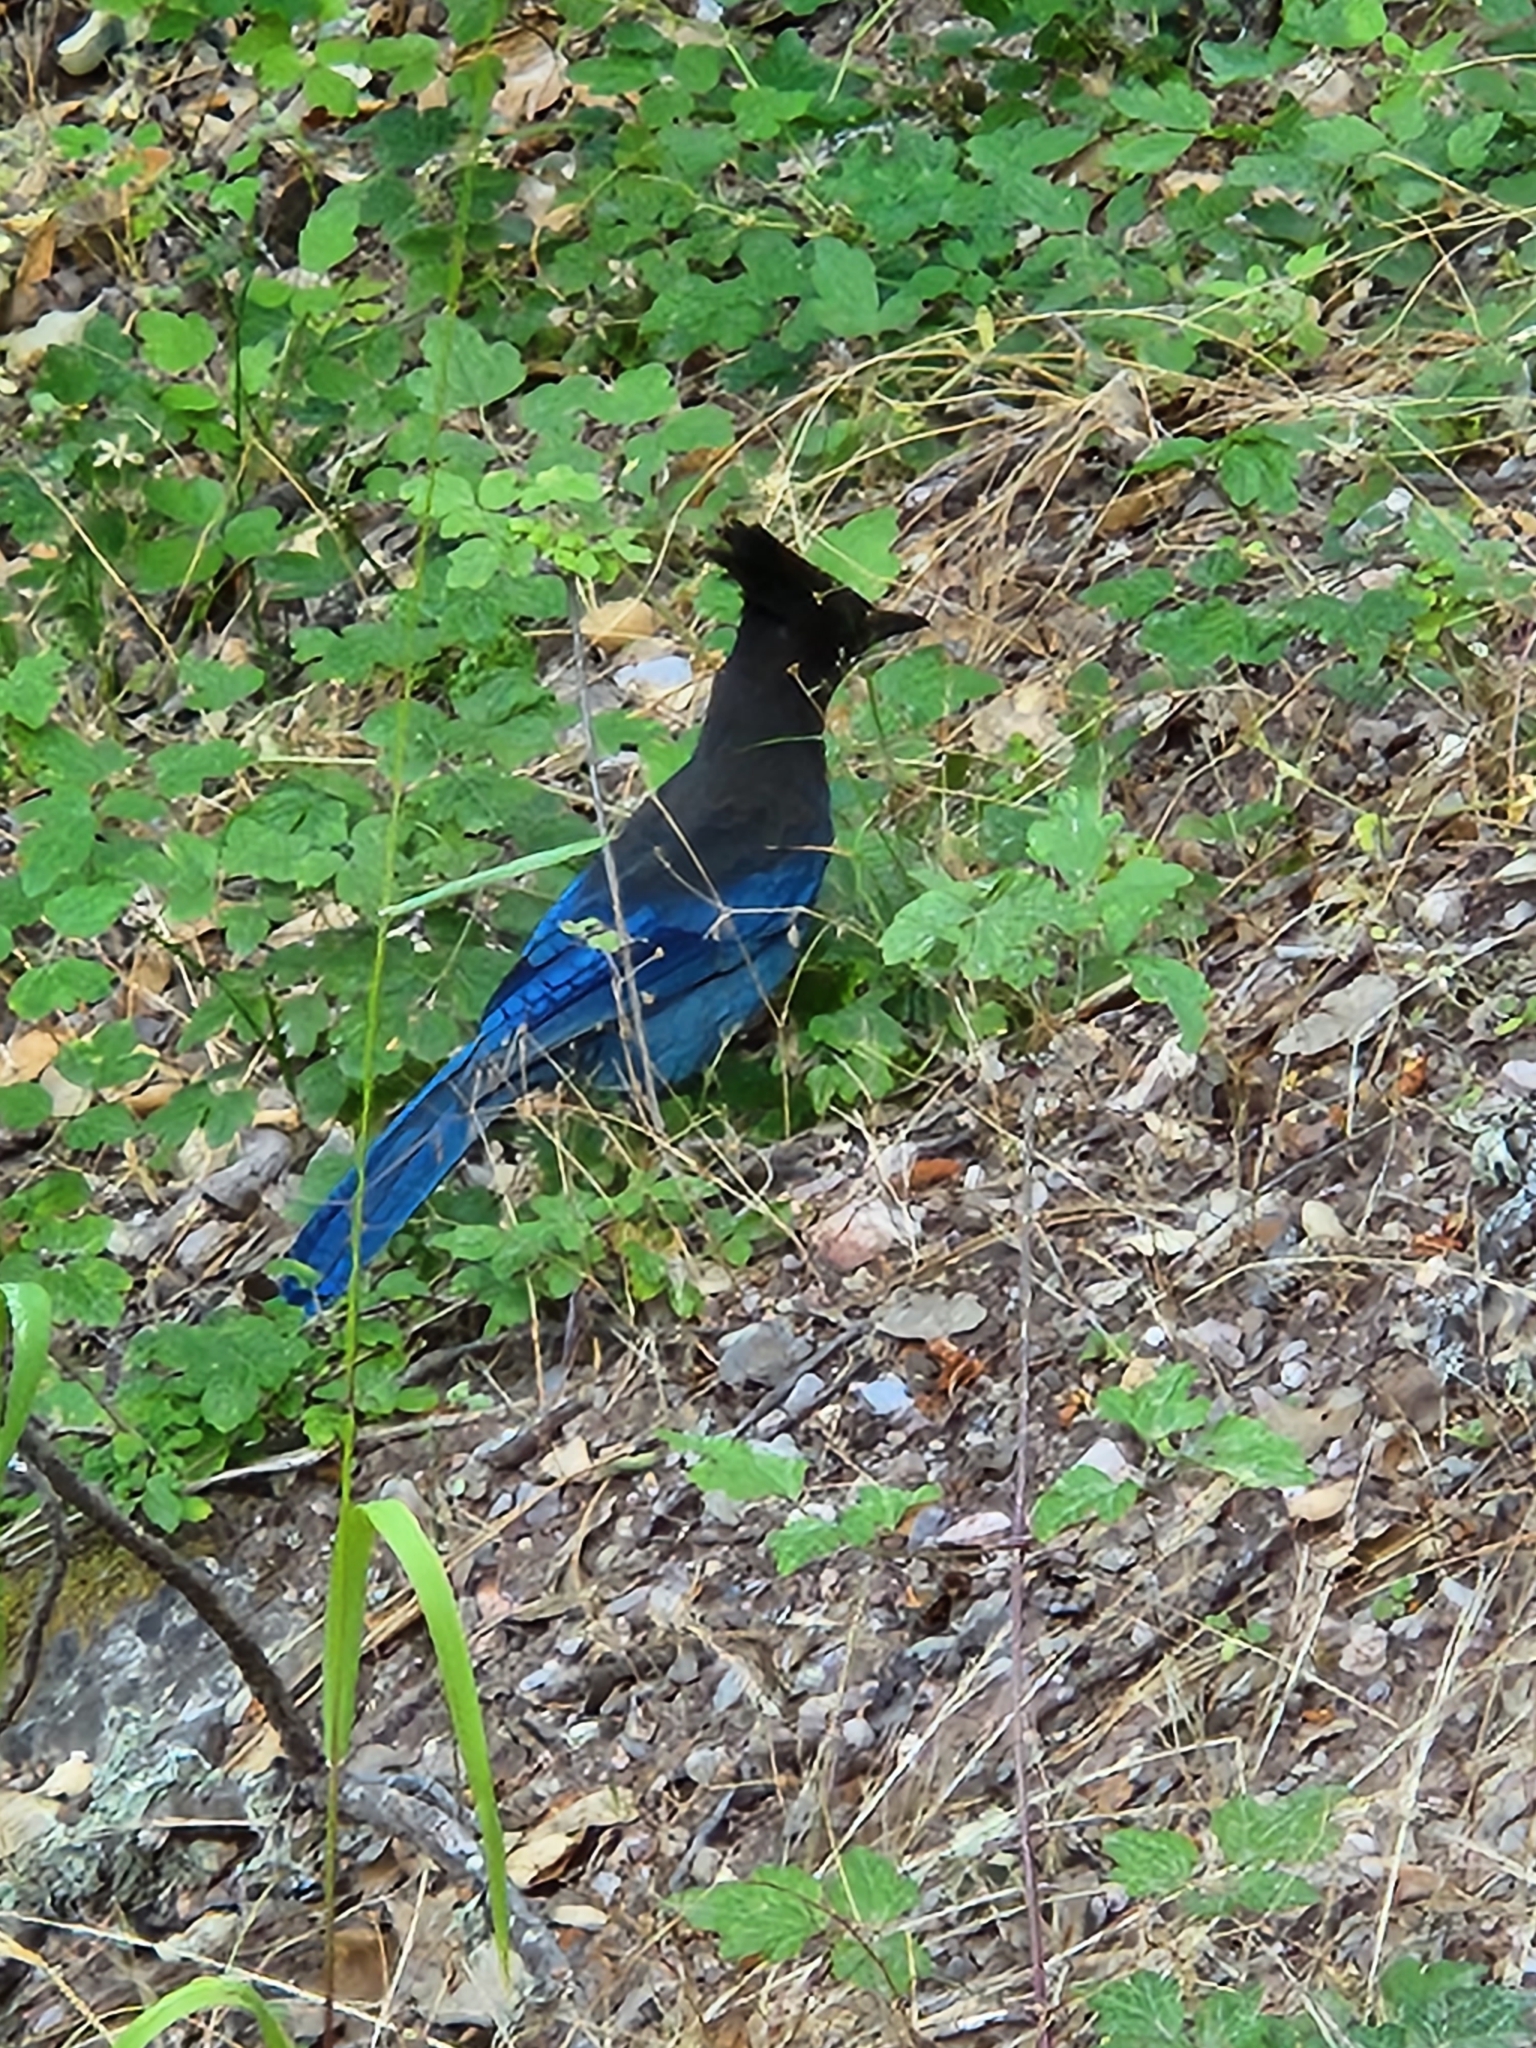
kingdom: Animalia
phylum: Chordata
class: Aves
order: Passeriformes
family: Corvidae
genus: Cyanocitta
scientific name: Cyanocitta stelleri
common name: Steller's jay
